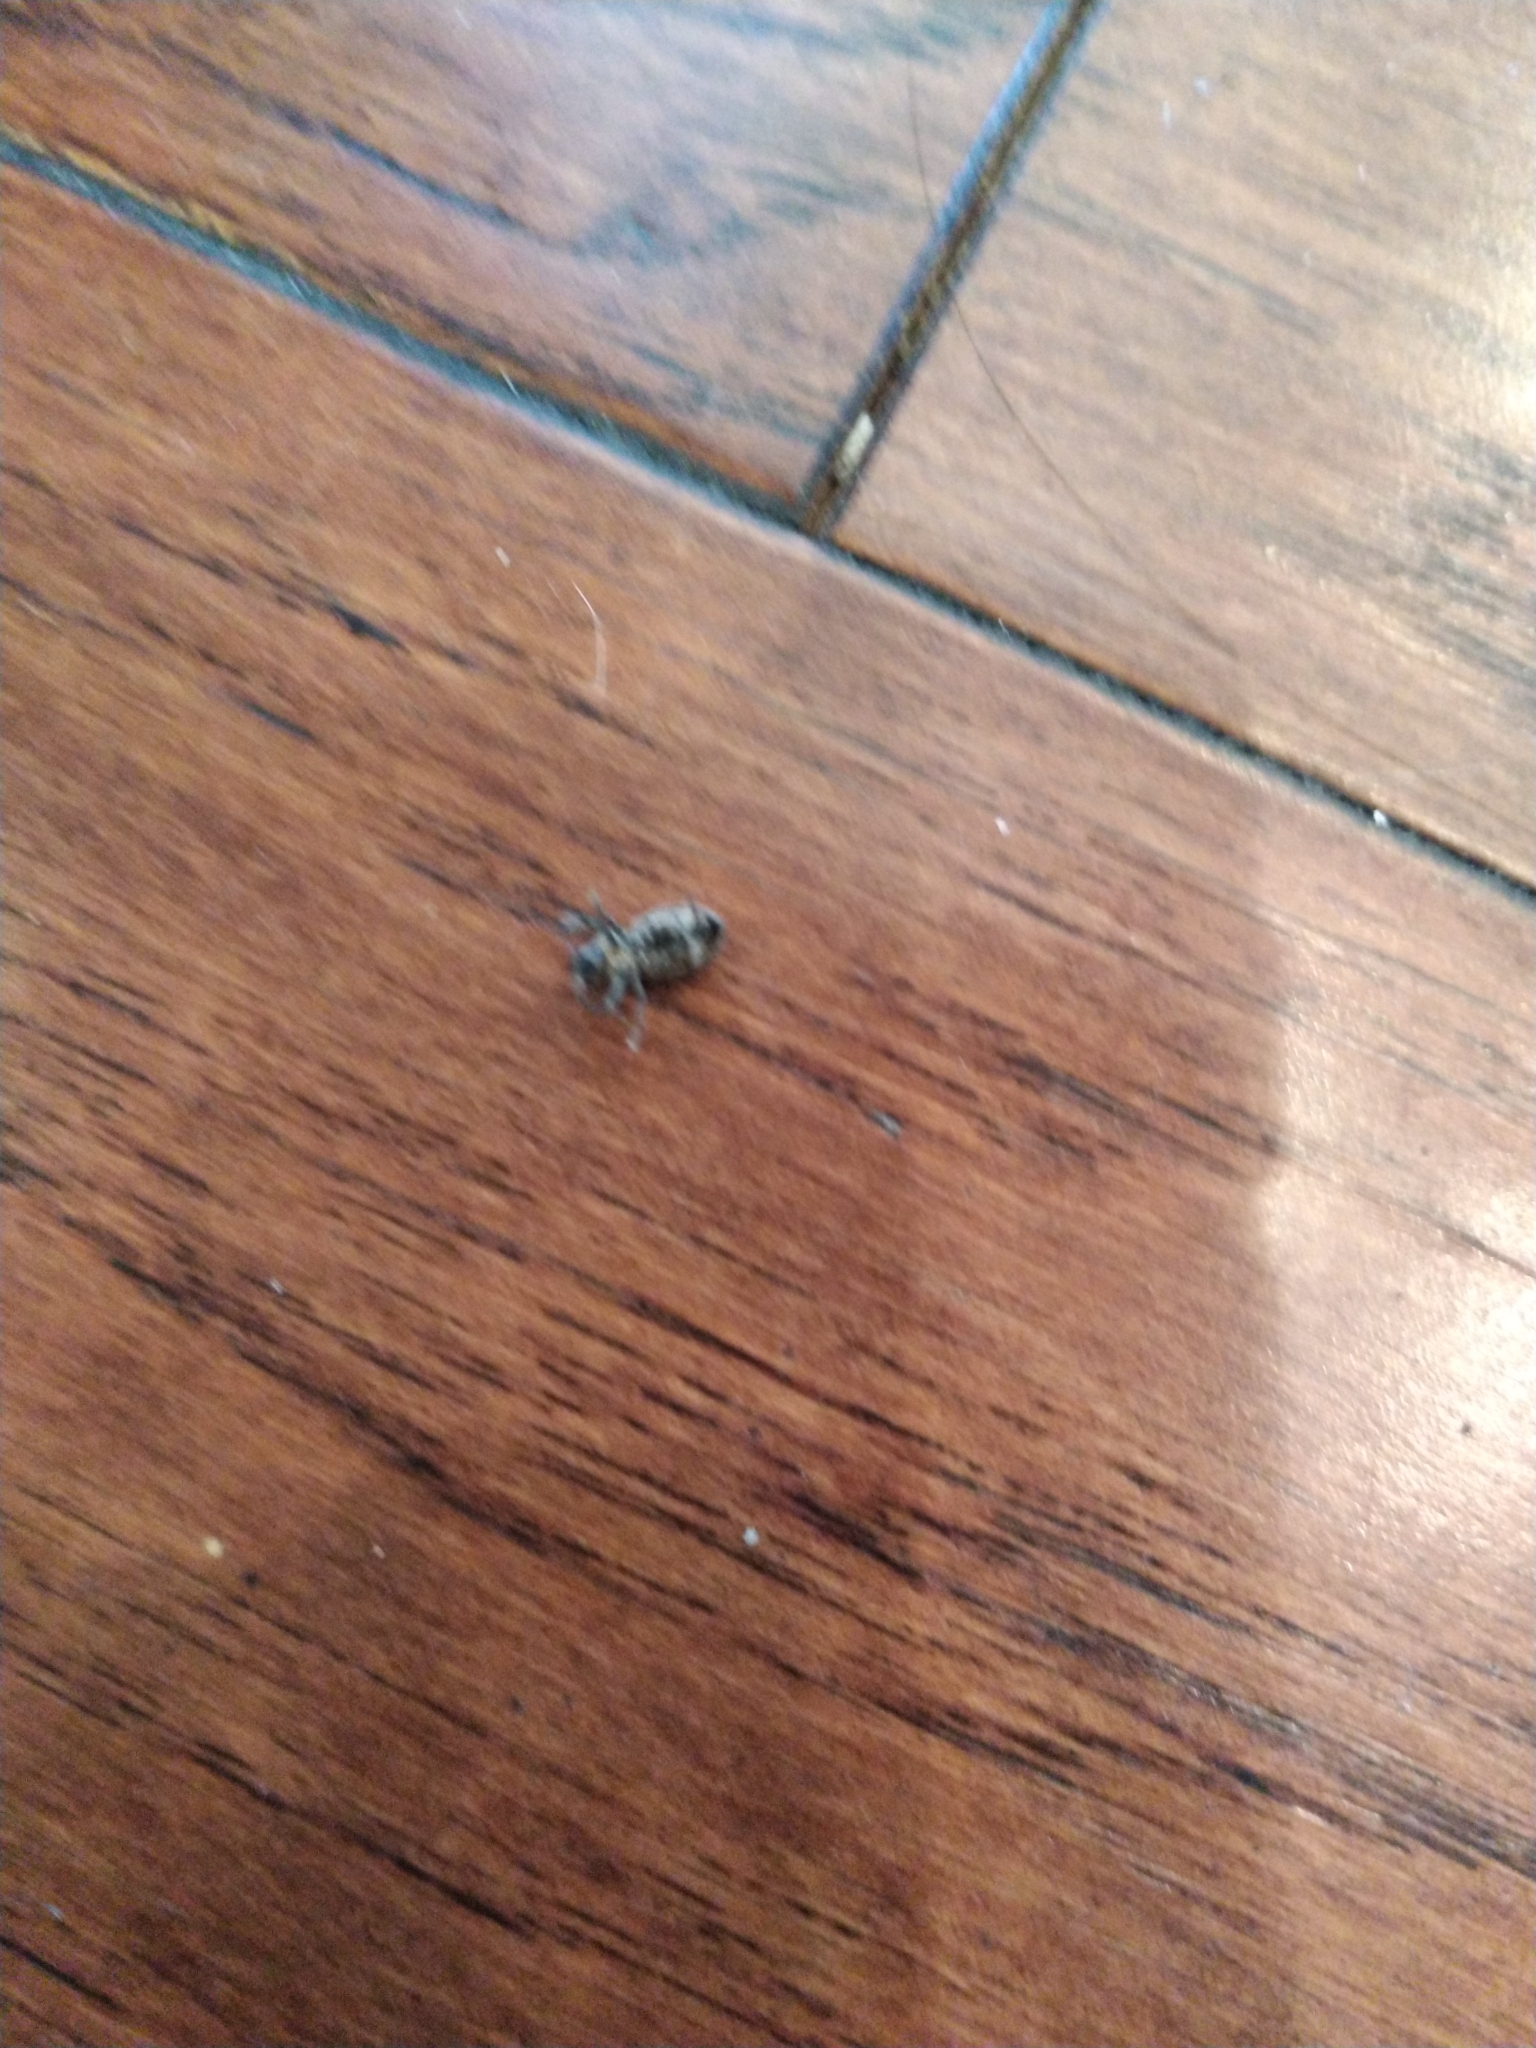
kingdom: Animalia
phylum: Arthropoda
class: Insecta
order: Coleoptera
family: Curculionidae
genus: Naupactus
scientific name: Naupactus peregrinus
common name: Whitefringed beetle
